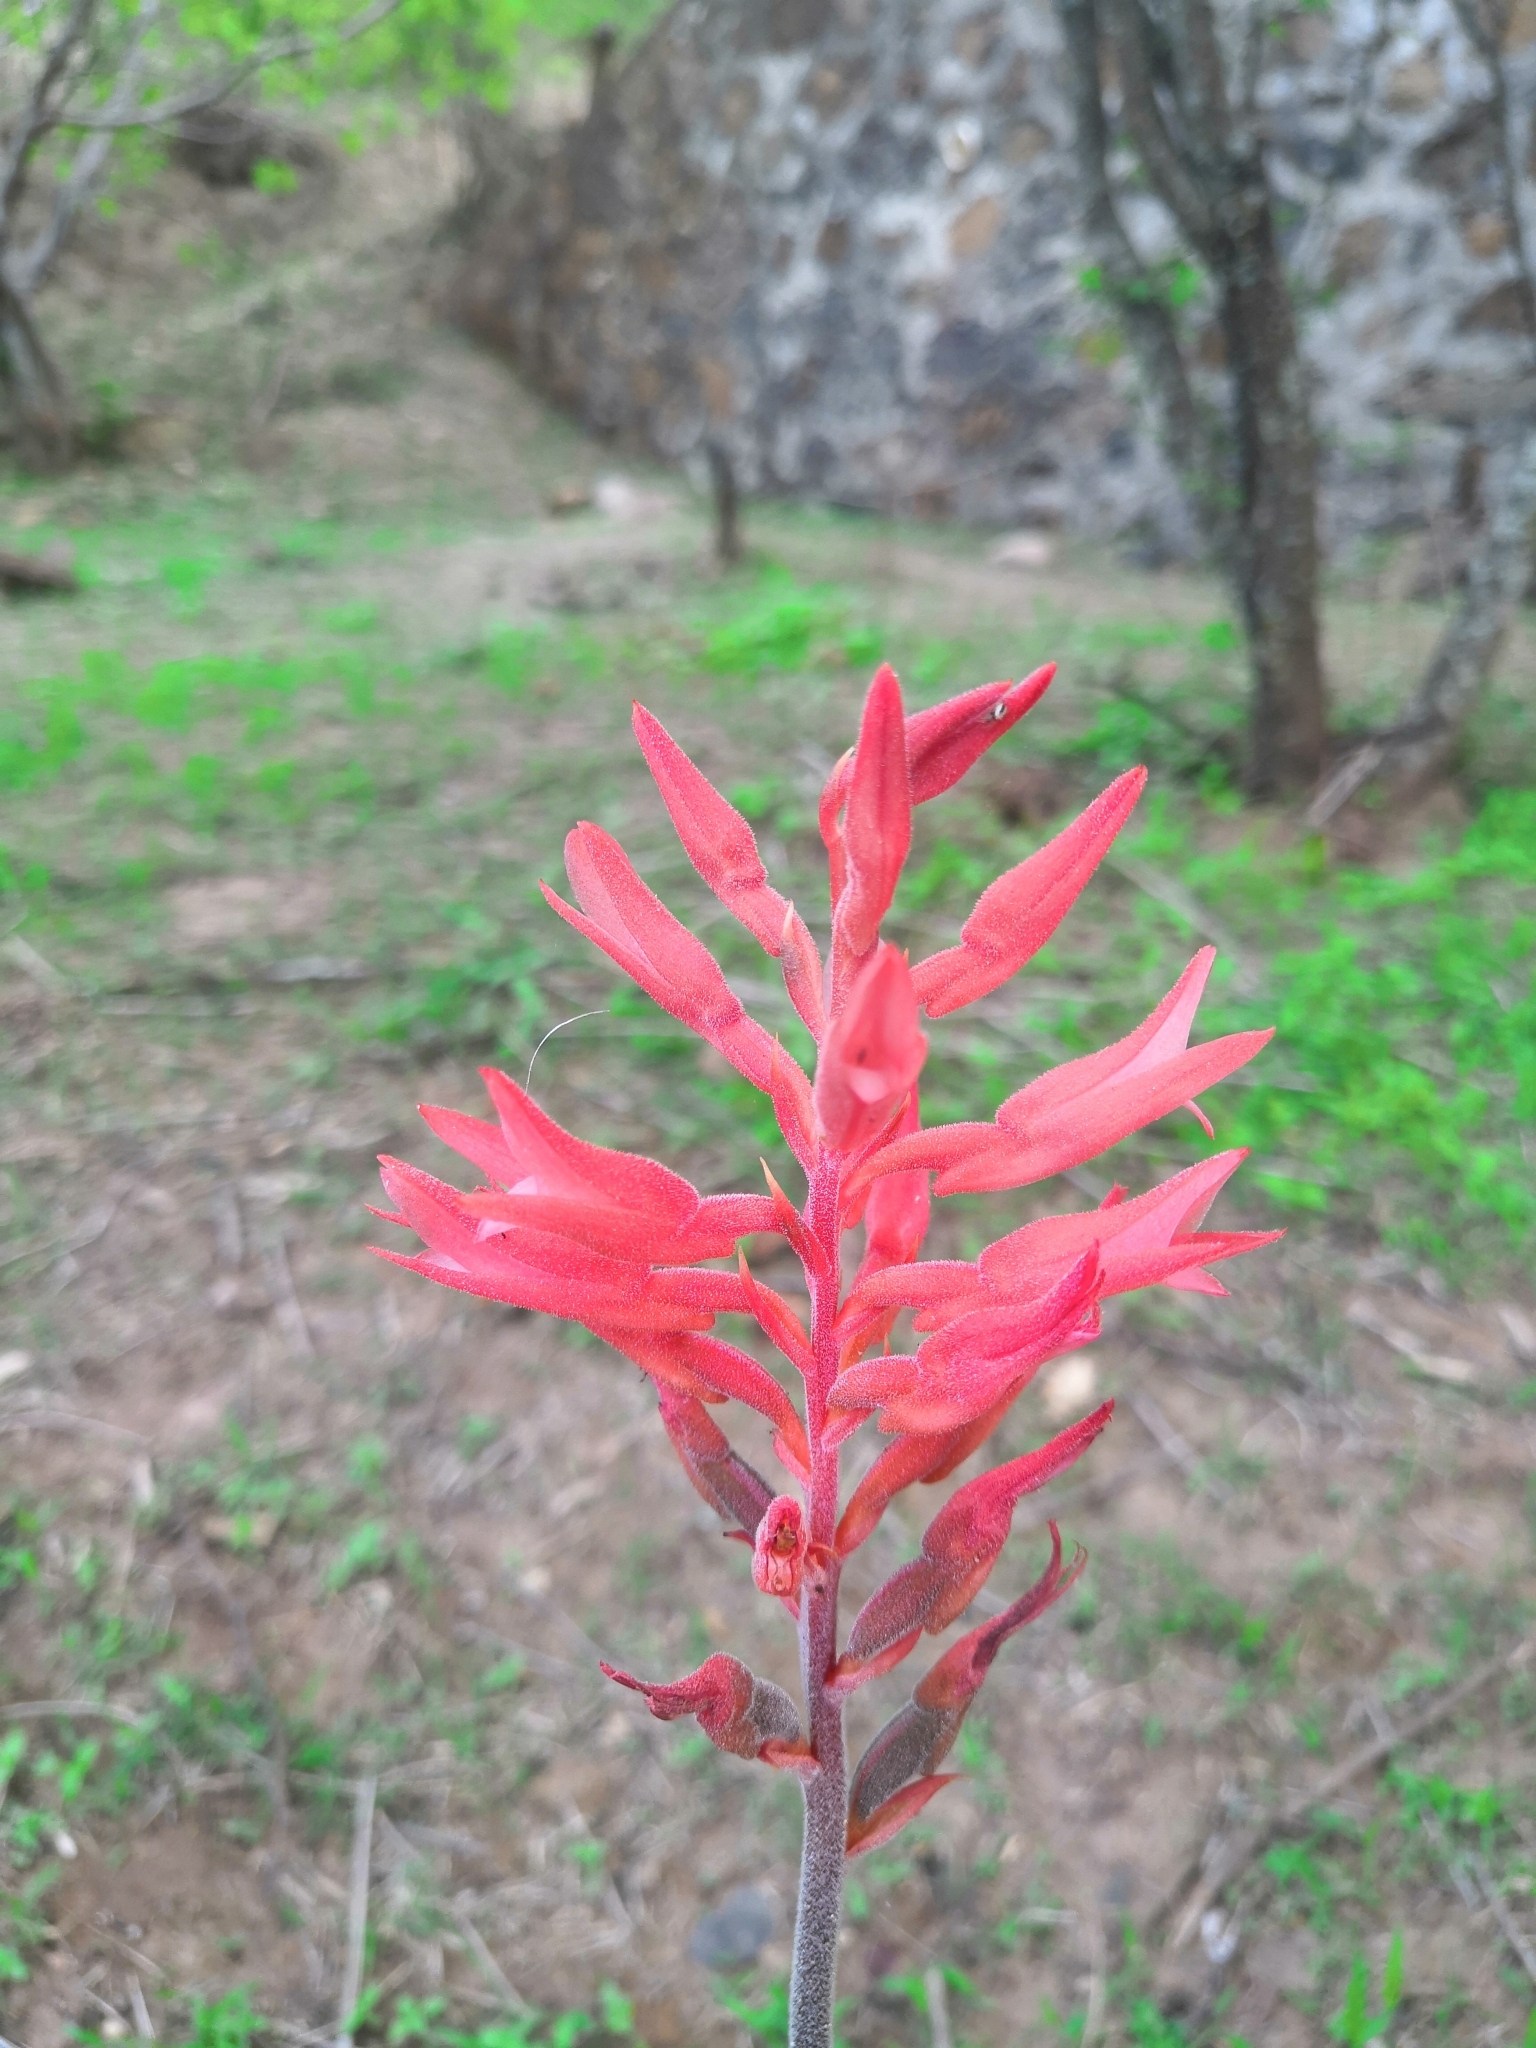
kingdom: Plantae
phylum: Tracheophyta
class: Liliopsida
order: Asparagales
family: Orchidaceae
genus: Sacoila
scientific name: Sacoila lanceolata
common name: Leafless beaked ladiestresses
